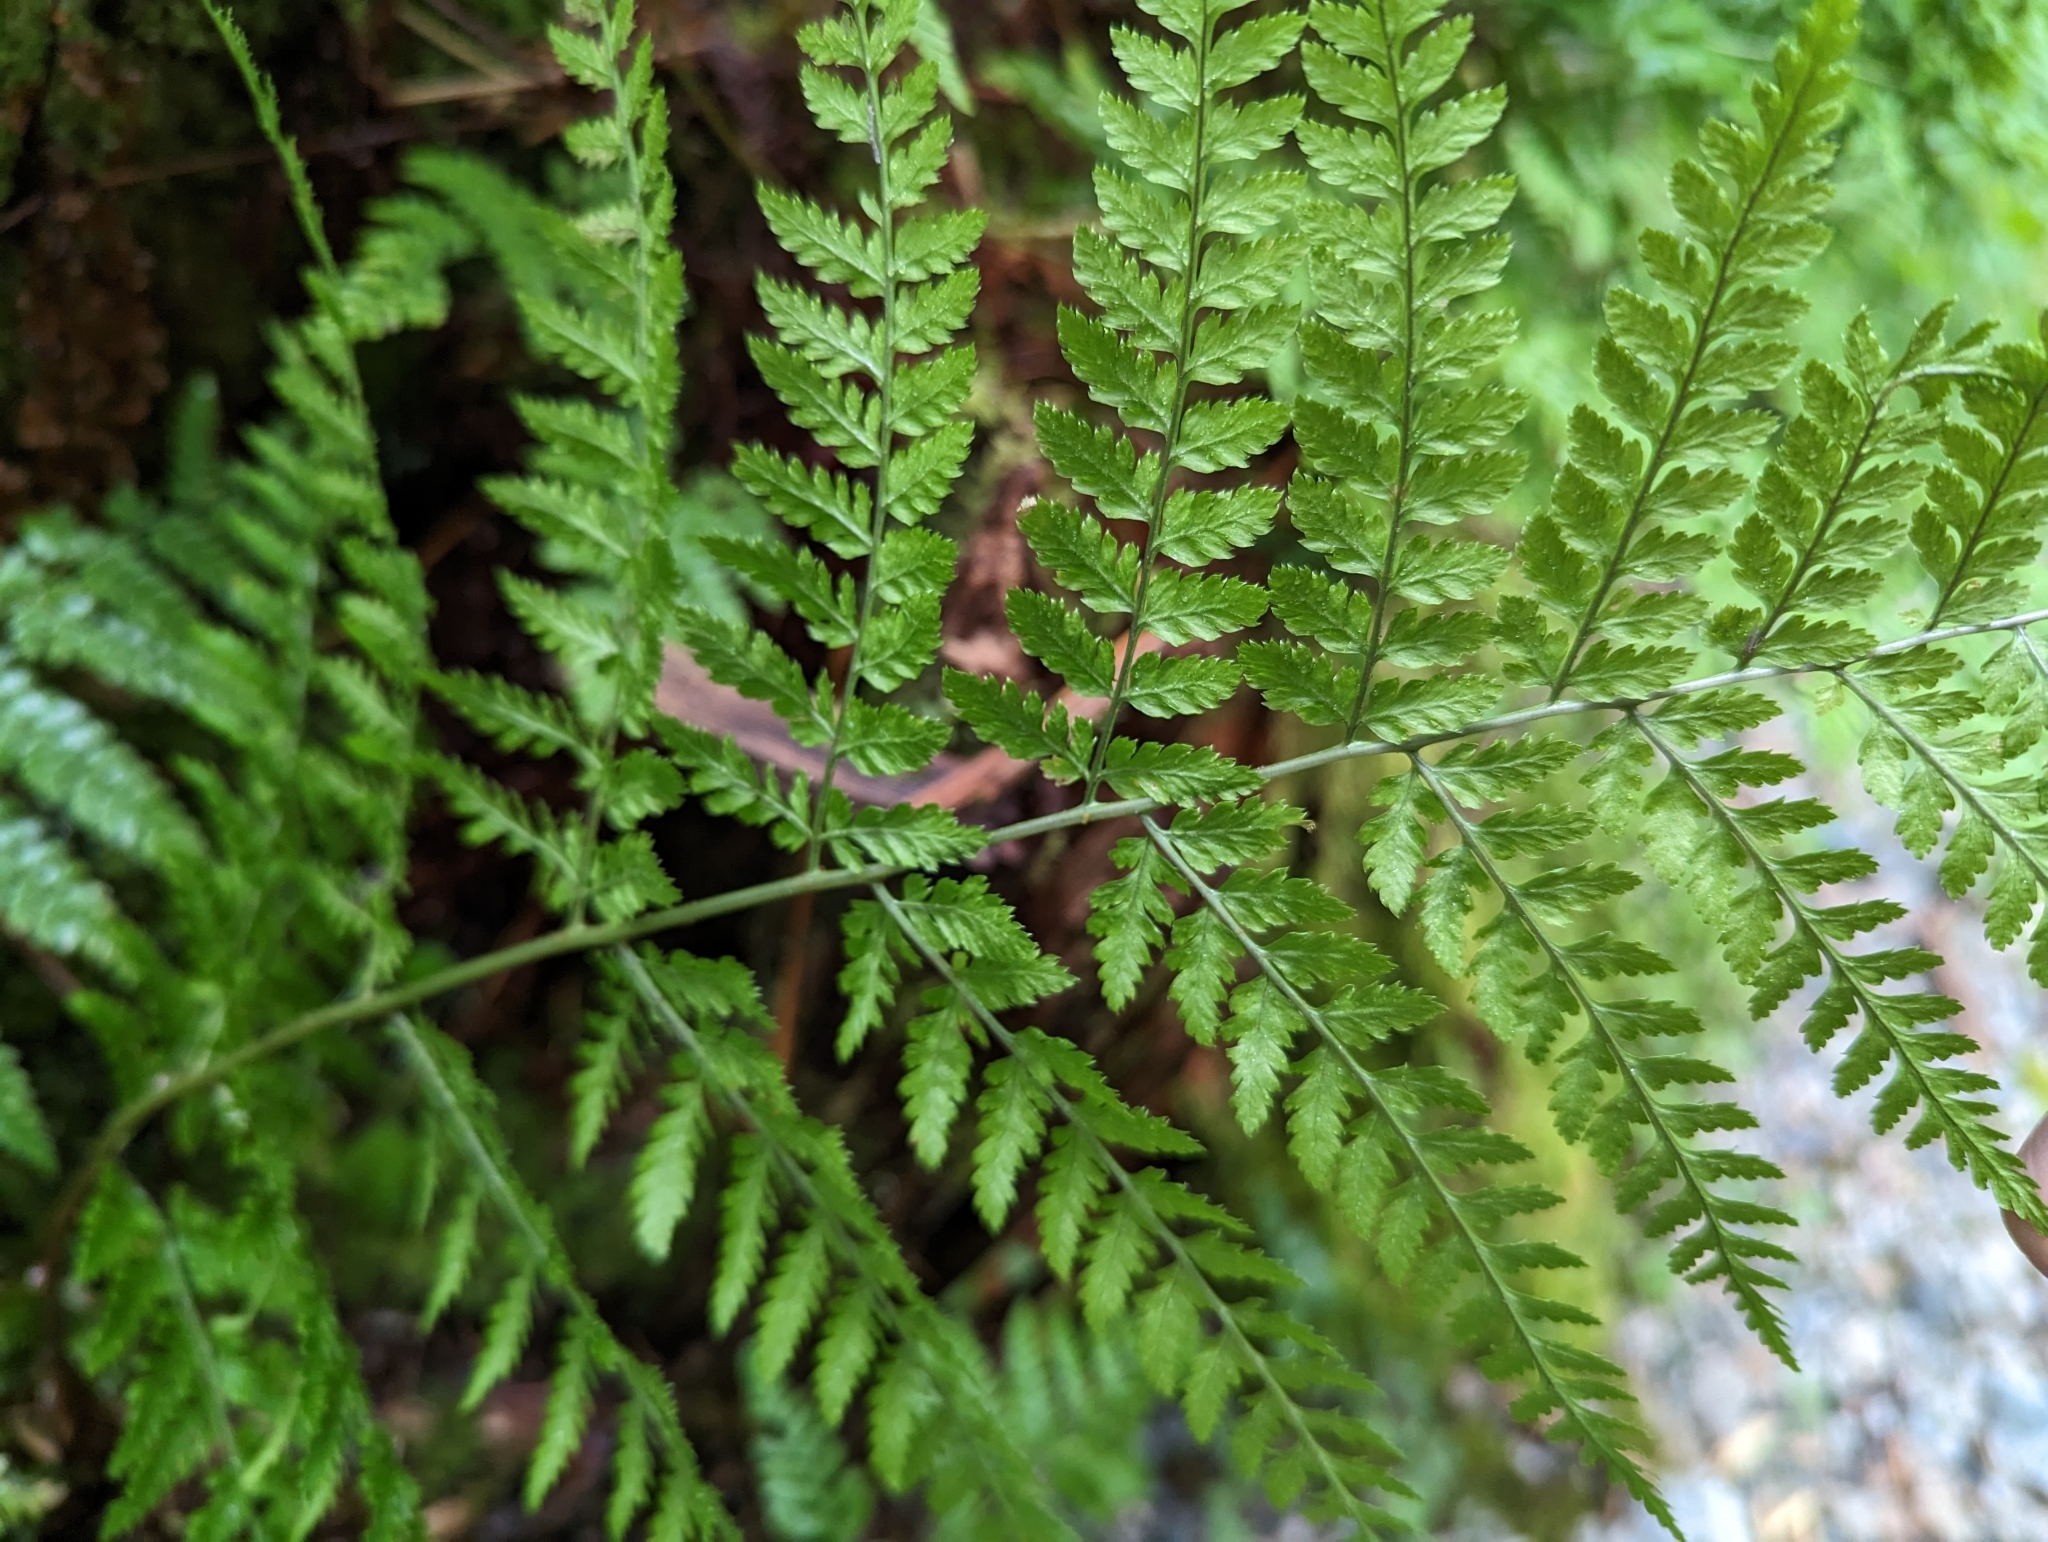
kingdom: Plantae
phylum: Tracheophyta
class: Polypodiopsida
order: Polypodiales
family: Dryopteridaceae
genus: Dryopteris
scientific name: Dryopteris expansa
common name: Northern buckler fern
